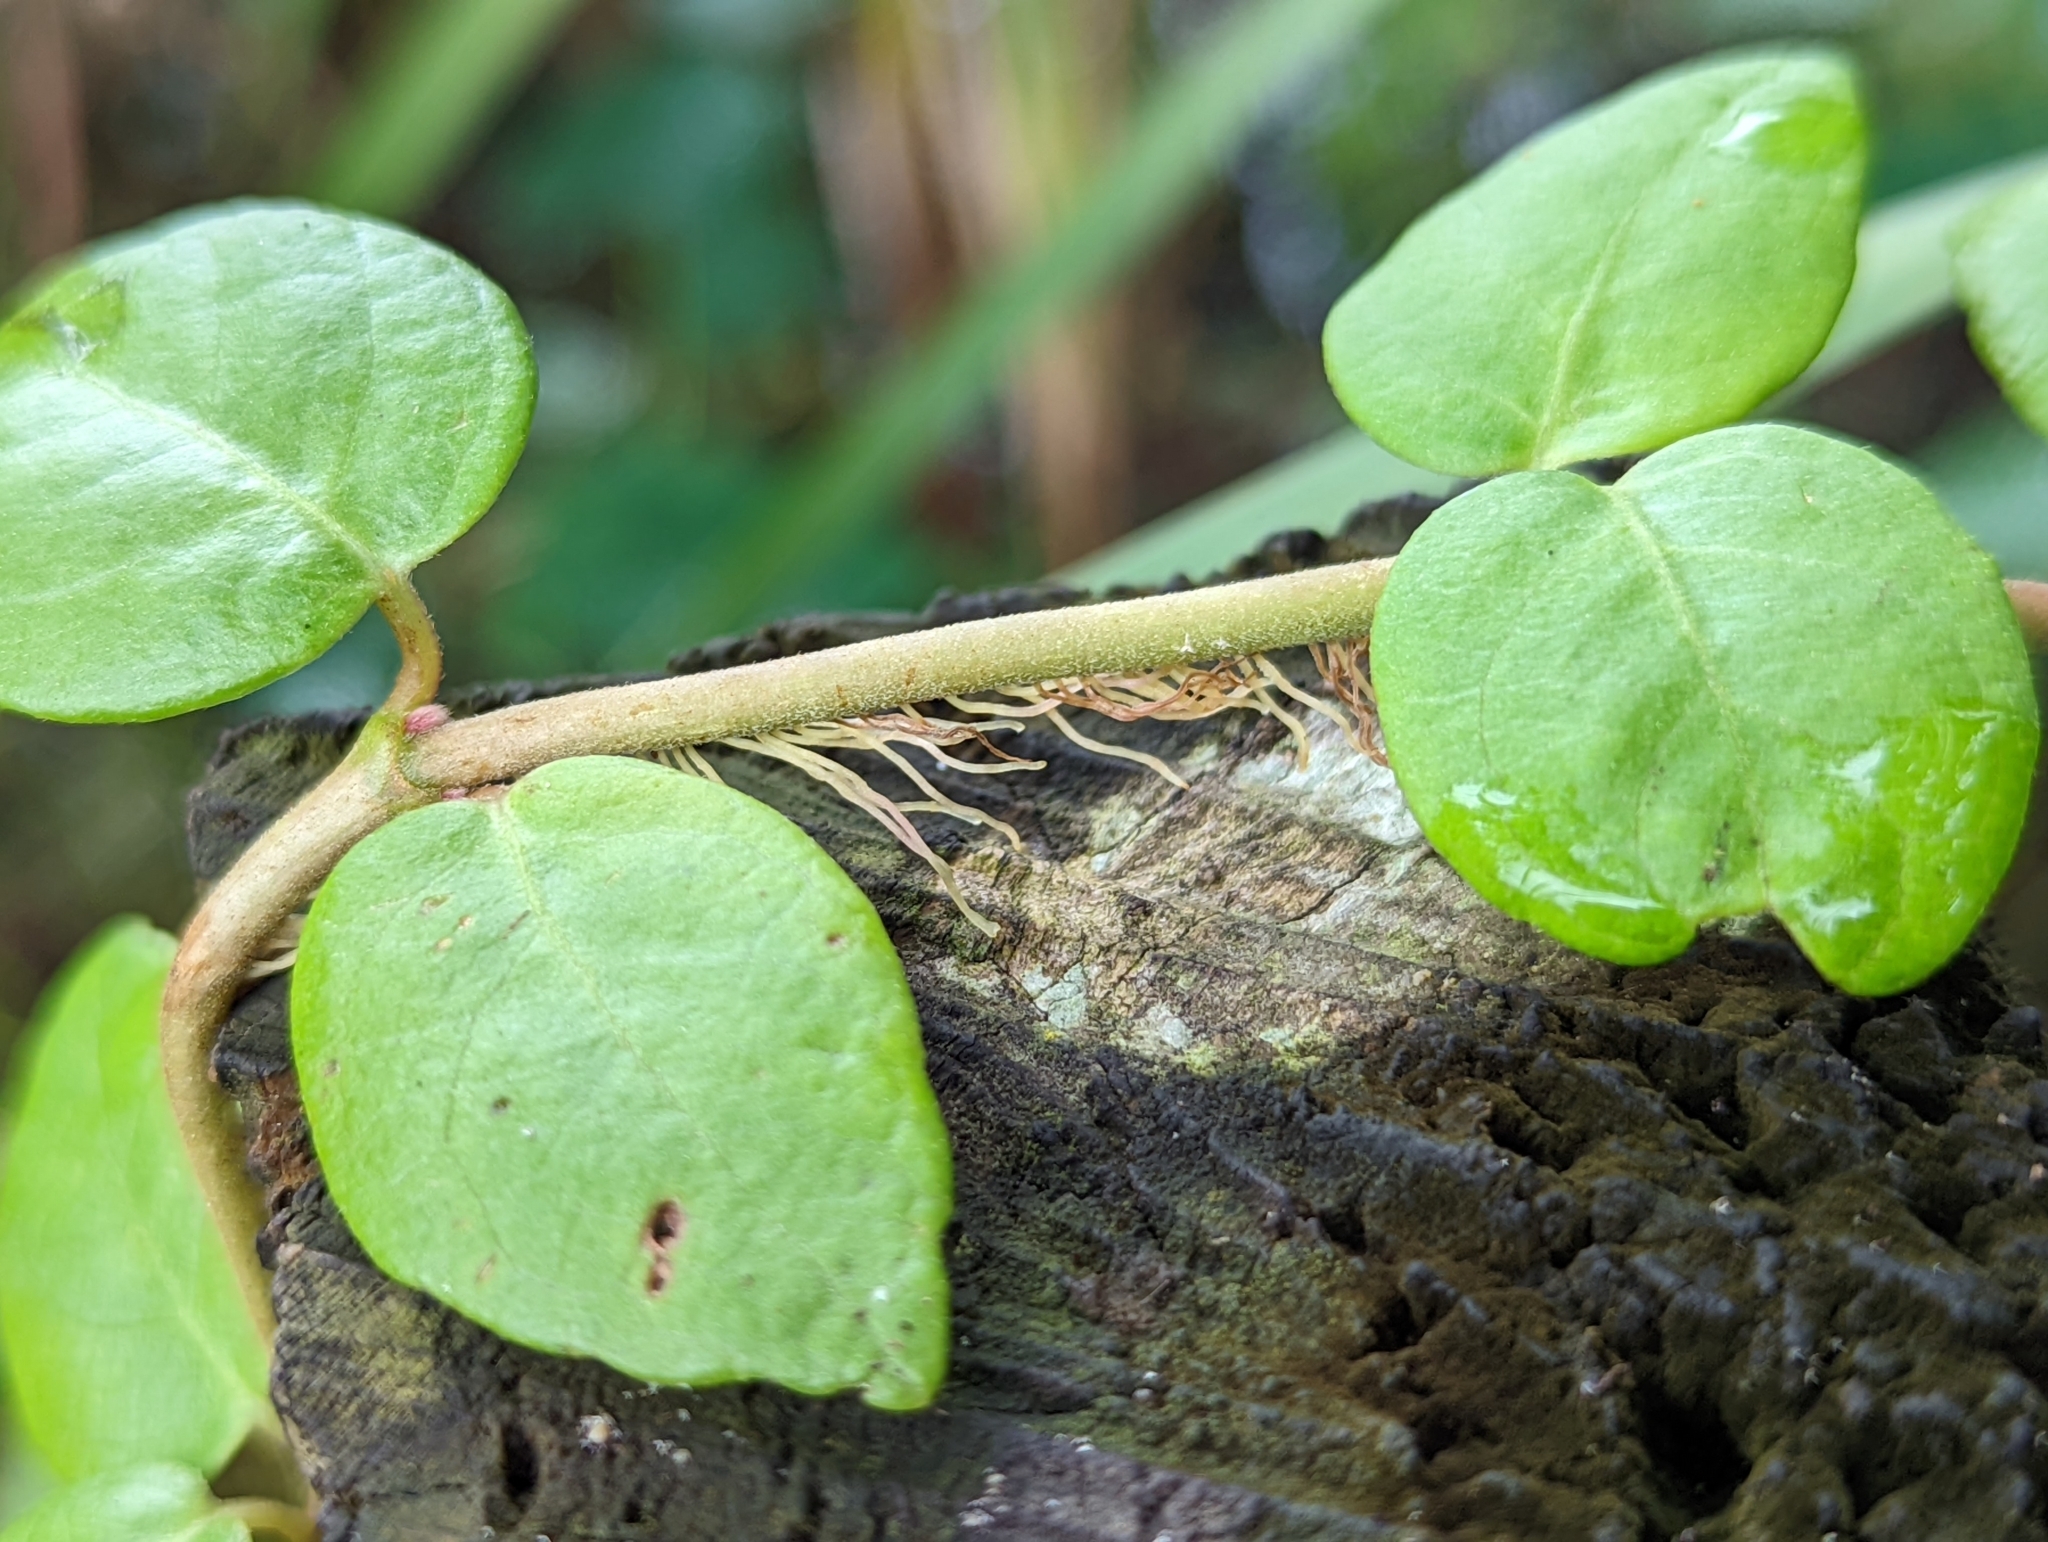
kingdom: Plantae
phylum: Tracheophyta
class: Magnoliopsida
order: Cornales
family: Hydrangeaceae
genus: Hydrangea
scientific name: Hydrangea barbara
